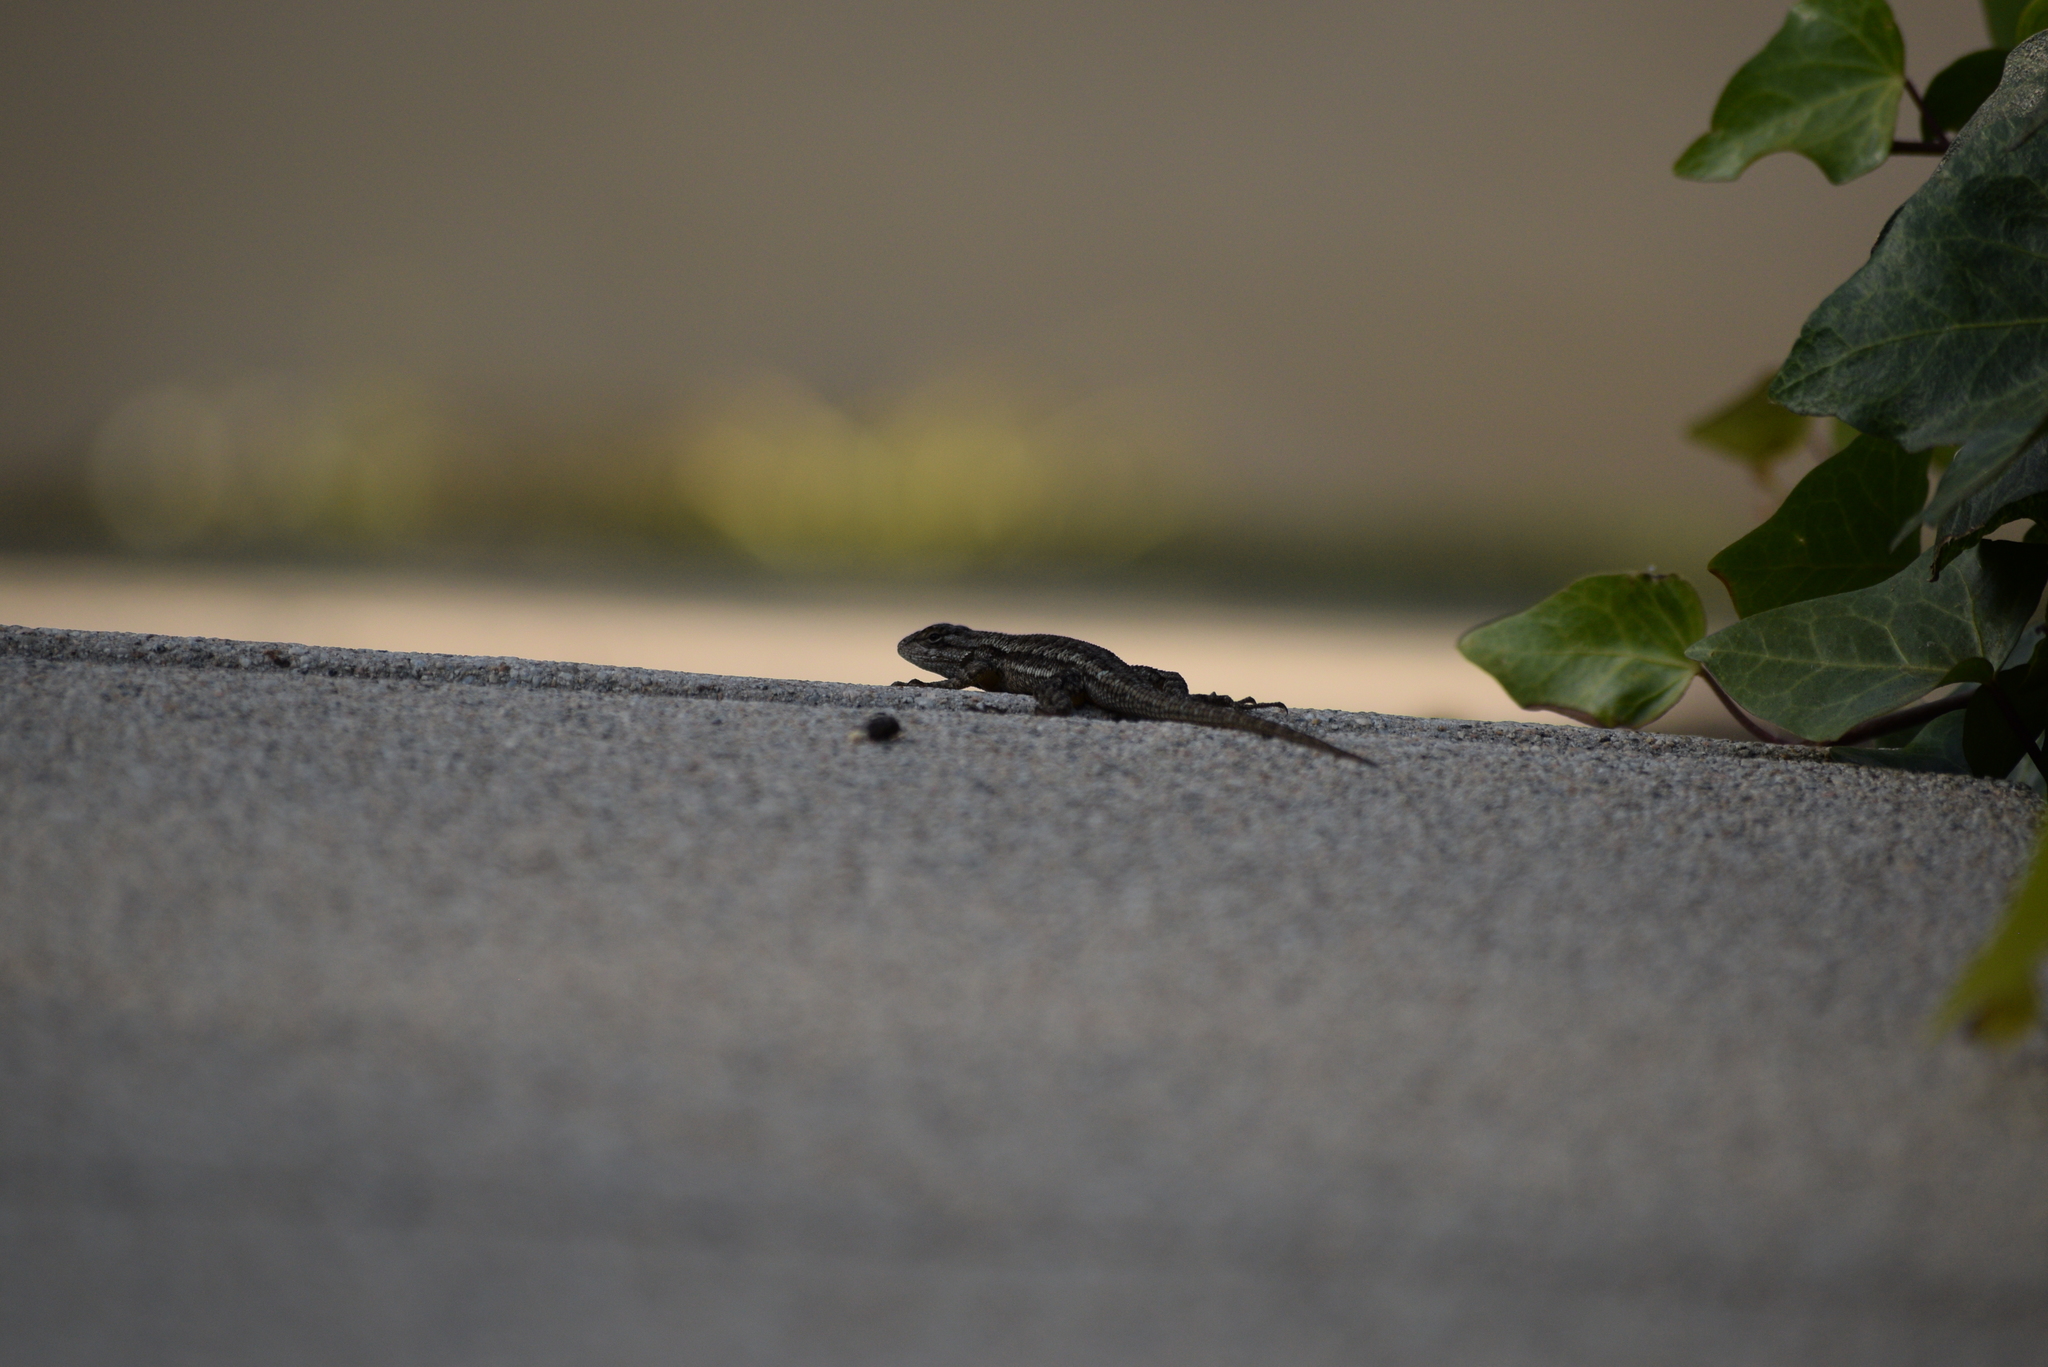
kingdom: Animalia
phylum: Chordata
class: Squamata
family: Phrynosomatidae
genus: Sceloporus
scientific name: Sceloporus occidentalis
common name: Western fence lizard
